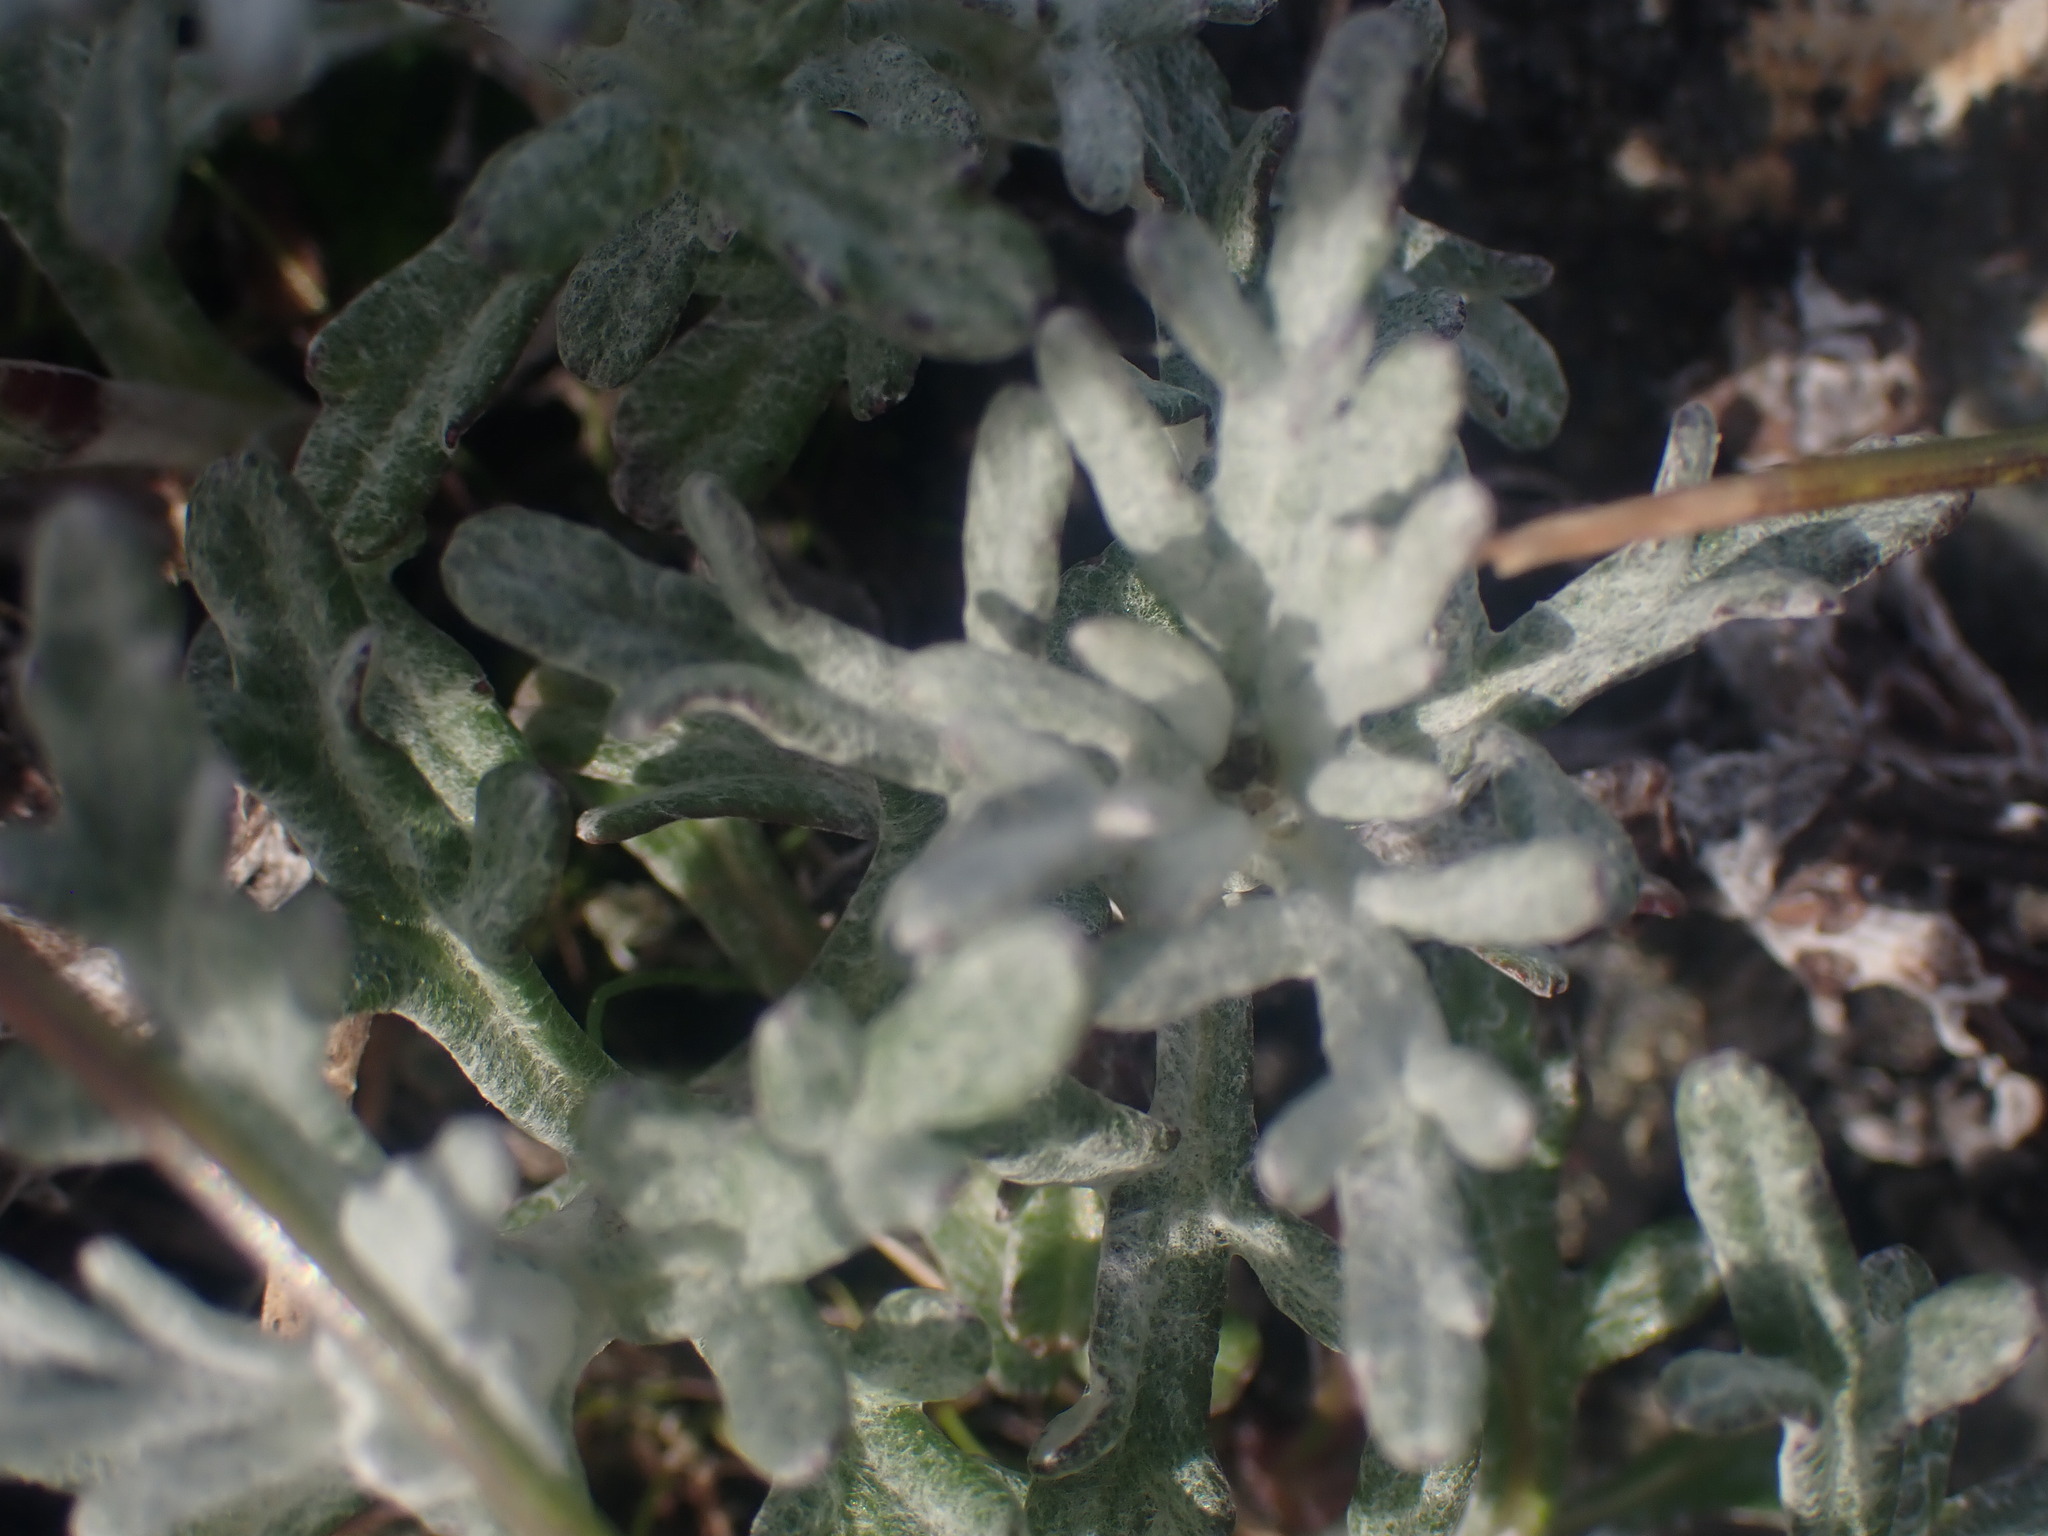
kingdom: Plantae
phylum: Tracheophyta
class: Magnoliopsida
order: Asterales
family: Asteraceae
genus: Eriophyllum
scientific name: Eriophyllum lanatum
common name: Common woolly-sunflower
